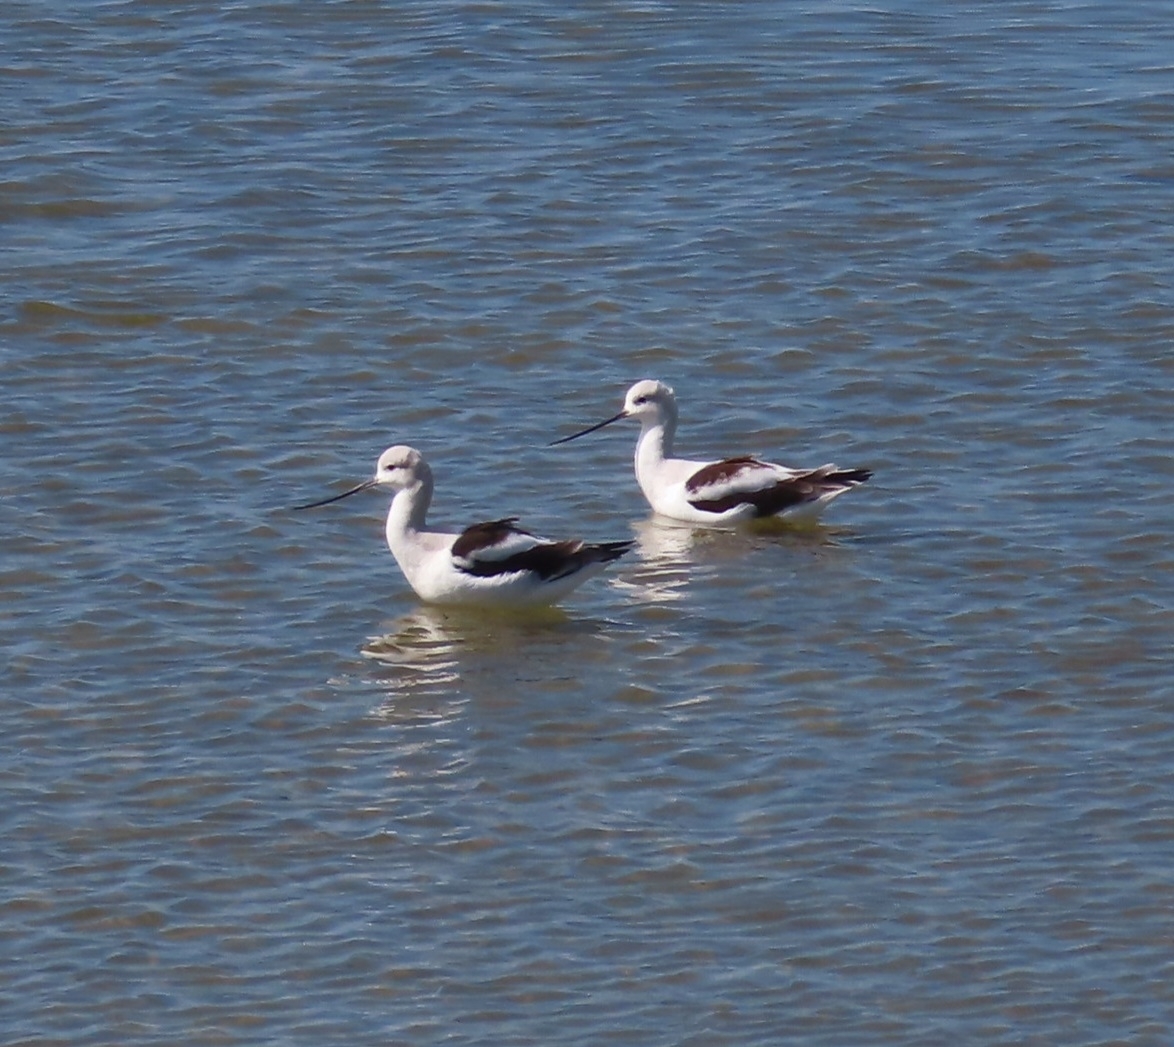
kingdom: Animalia
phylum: Chordata
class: Aves
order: Charadriiformes
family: Recurvirostridae
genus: Recurvirostra
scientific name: Recurvirostra americana
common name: American avocet
